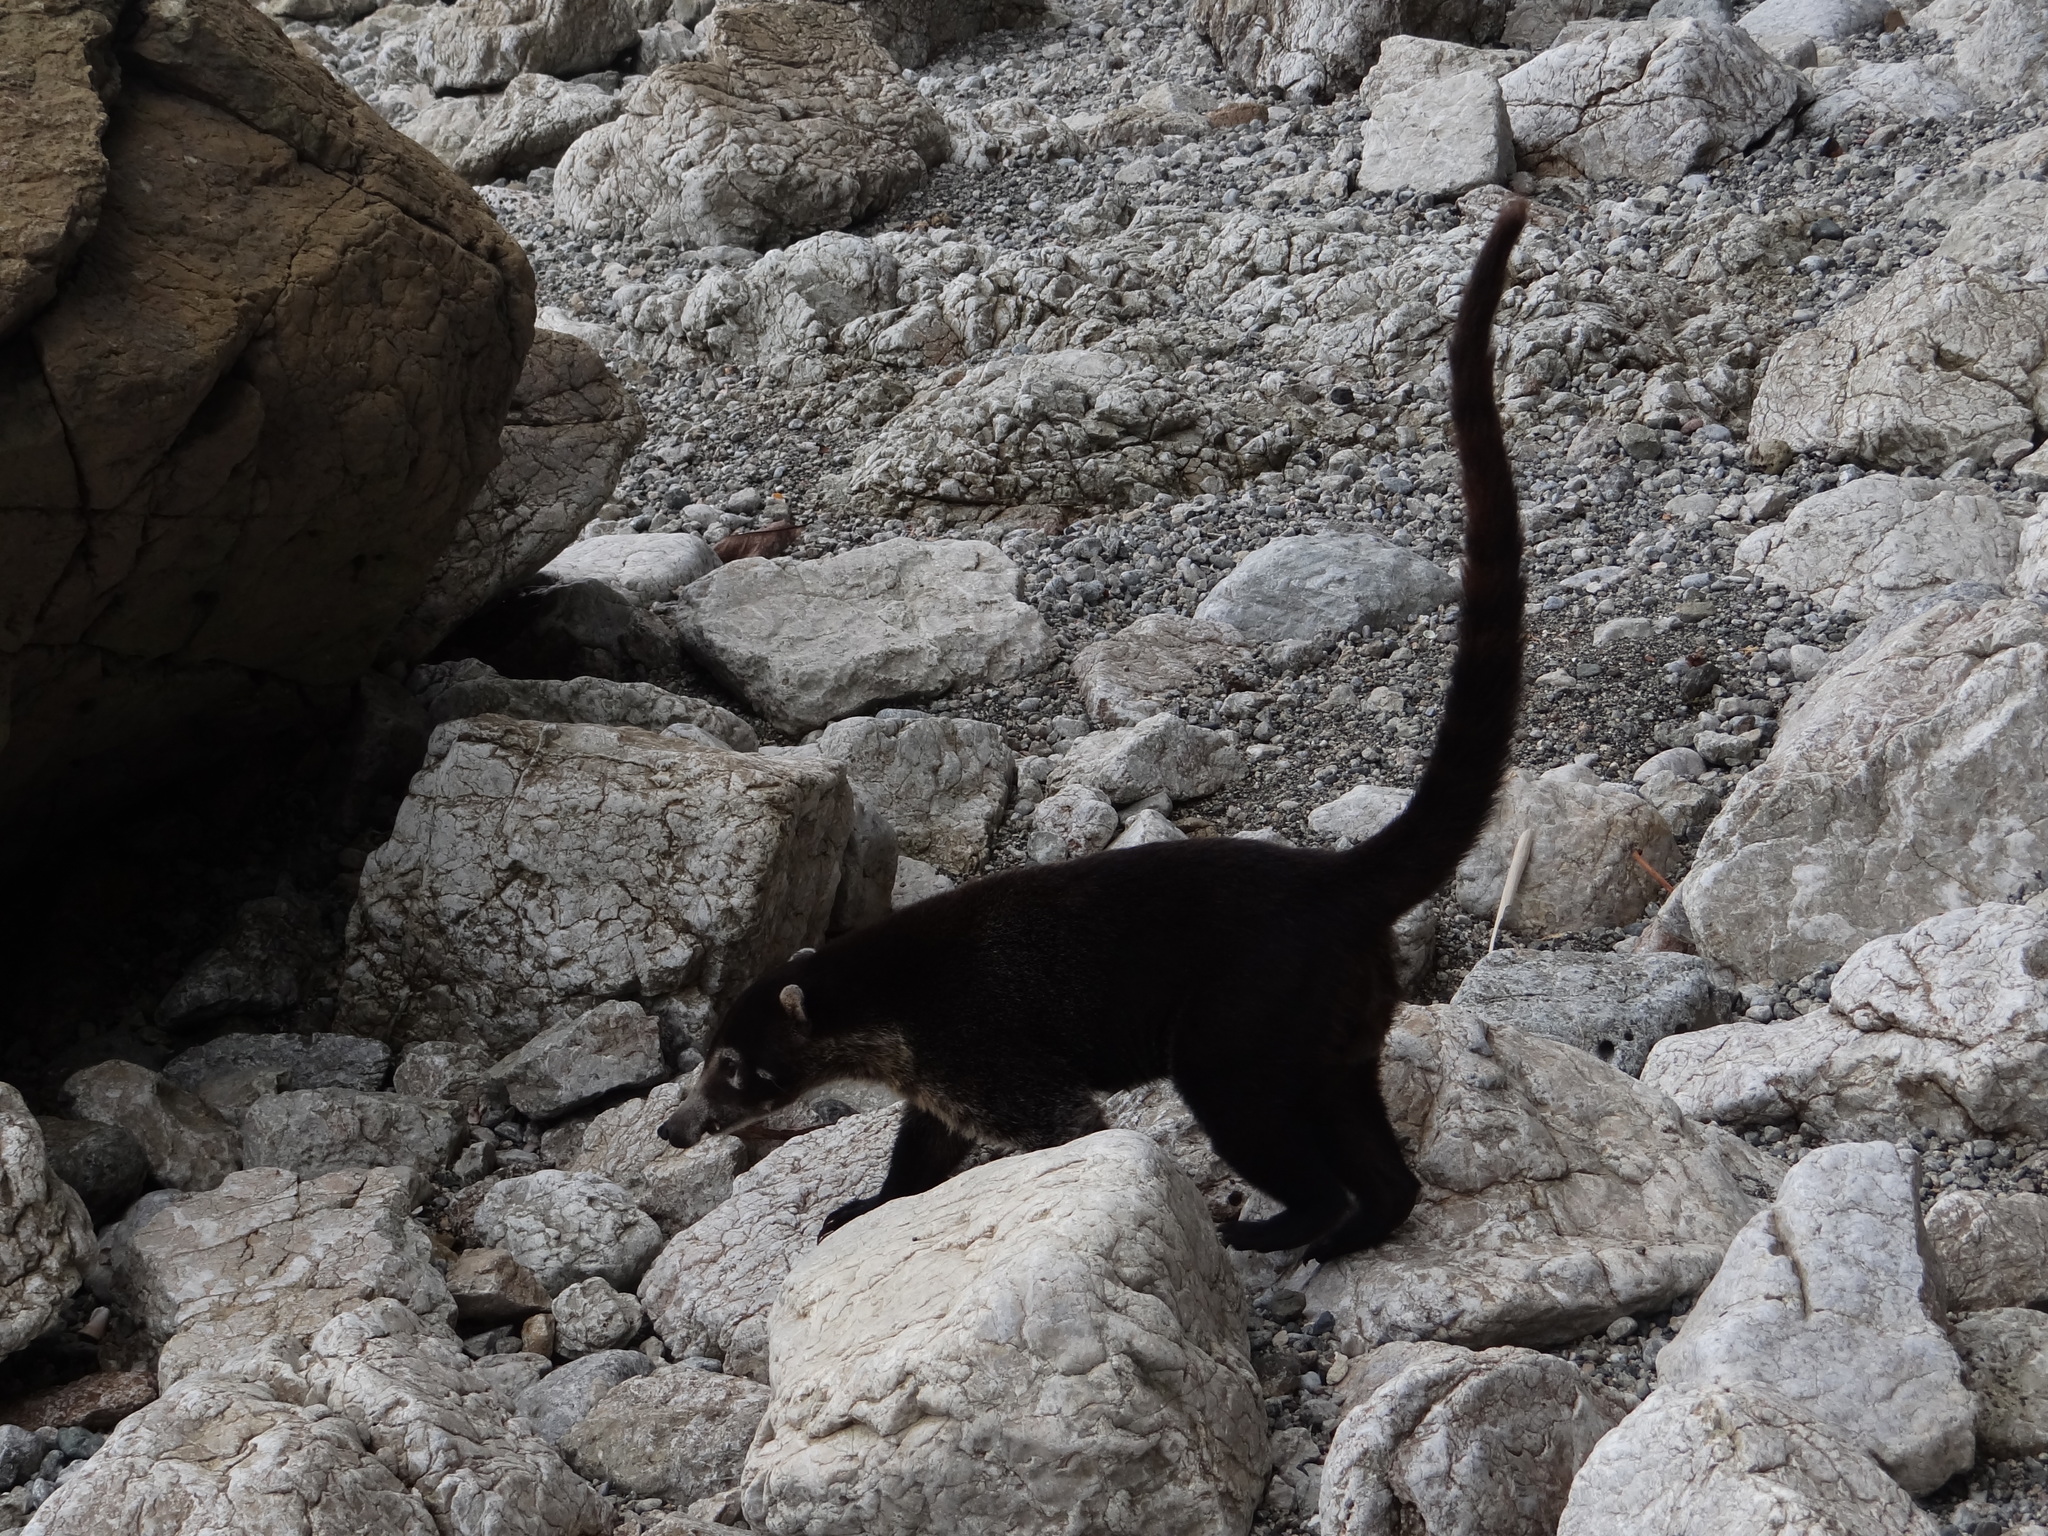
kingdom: Animalia
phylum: Chordata
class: Mammalia
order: Carnivora
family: Procyonidae
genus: Nasua
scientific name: Nasua narica
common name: White-nosed coati
